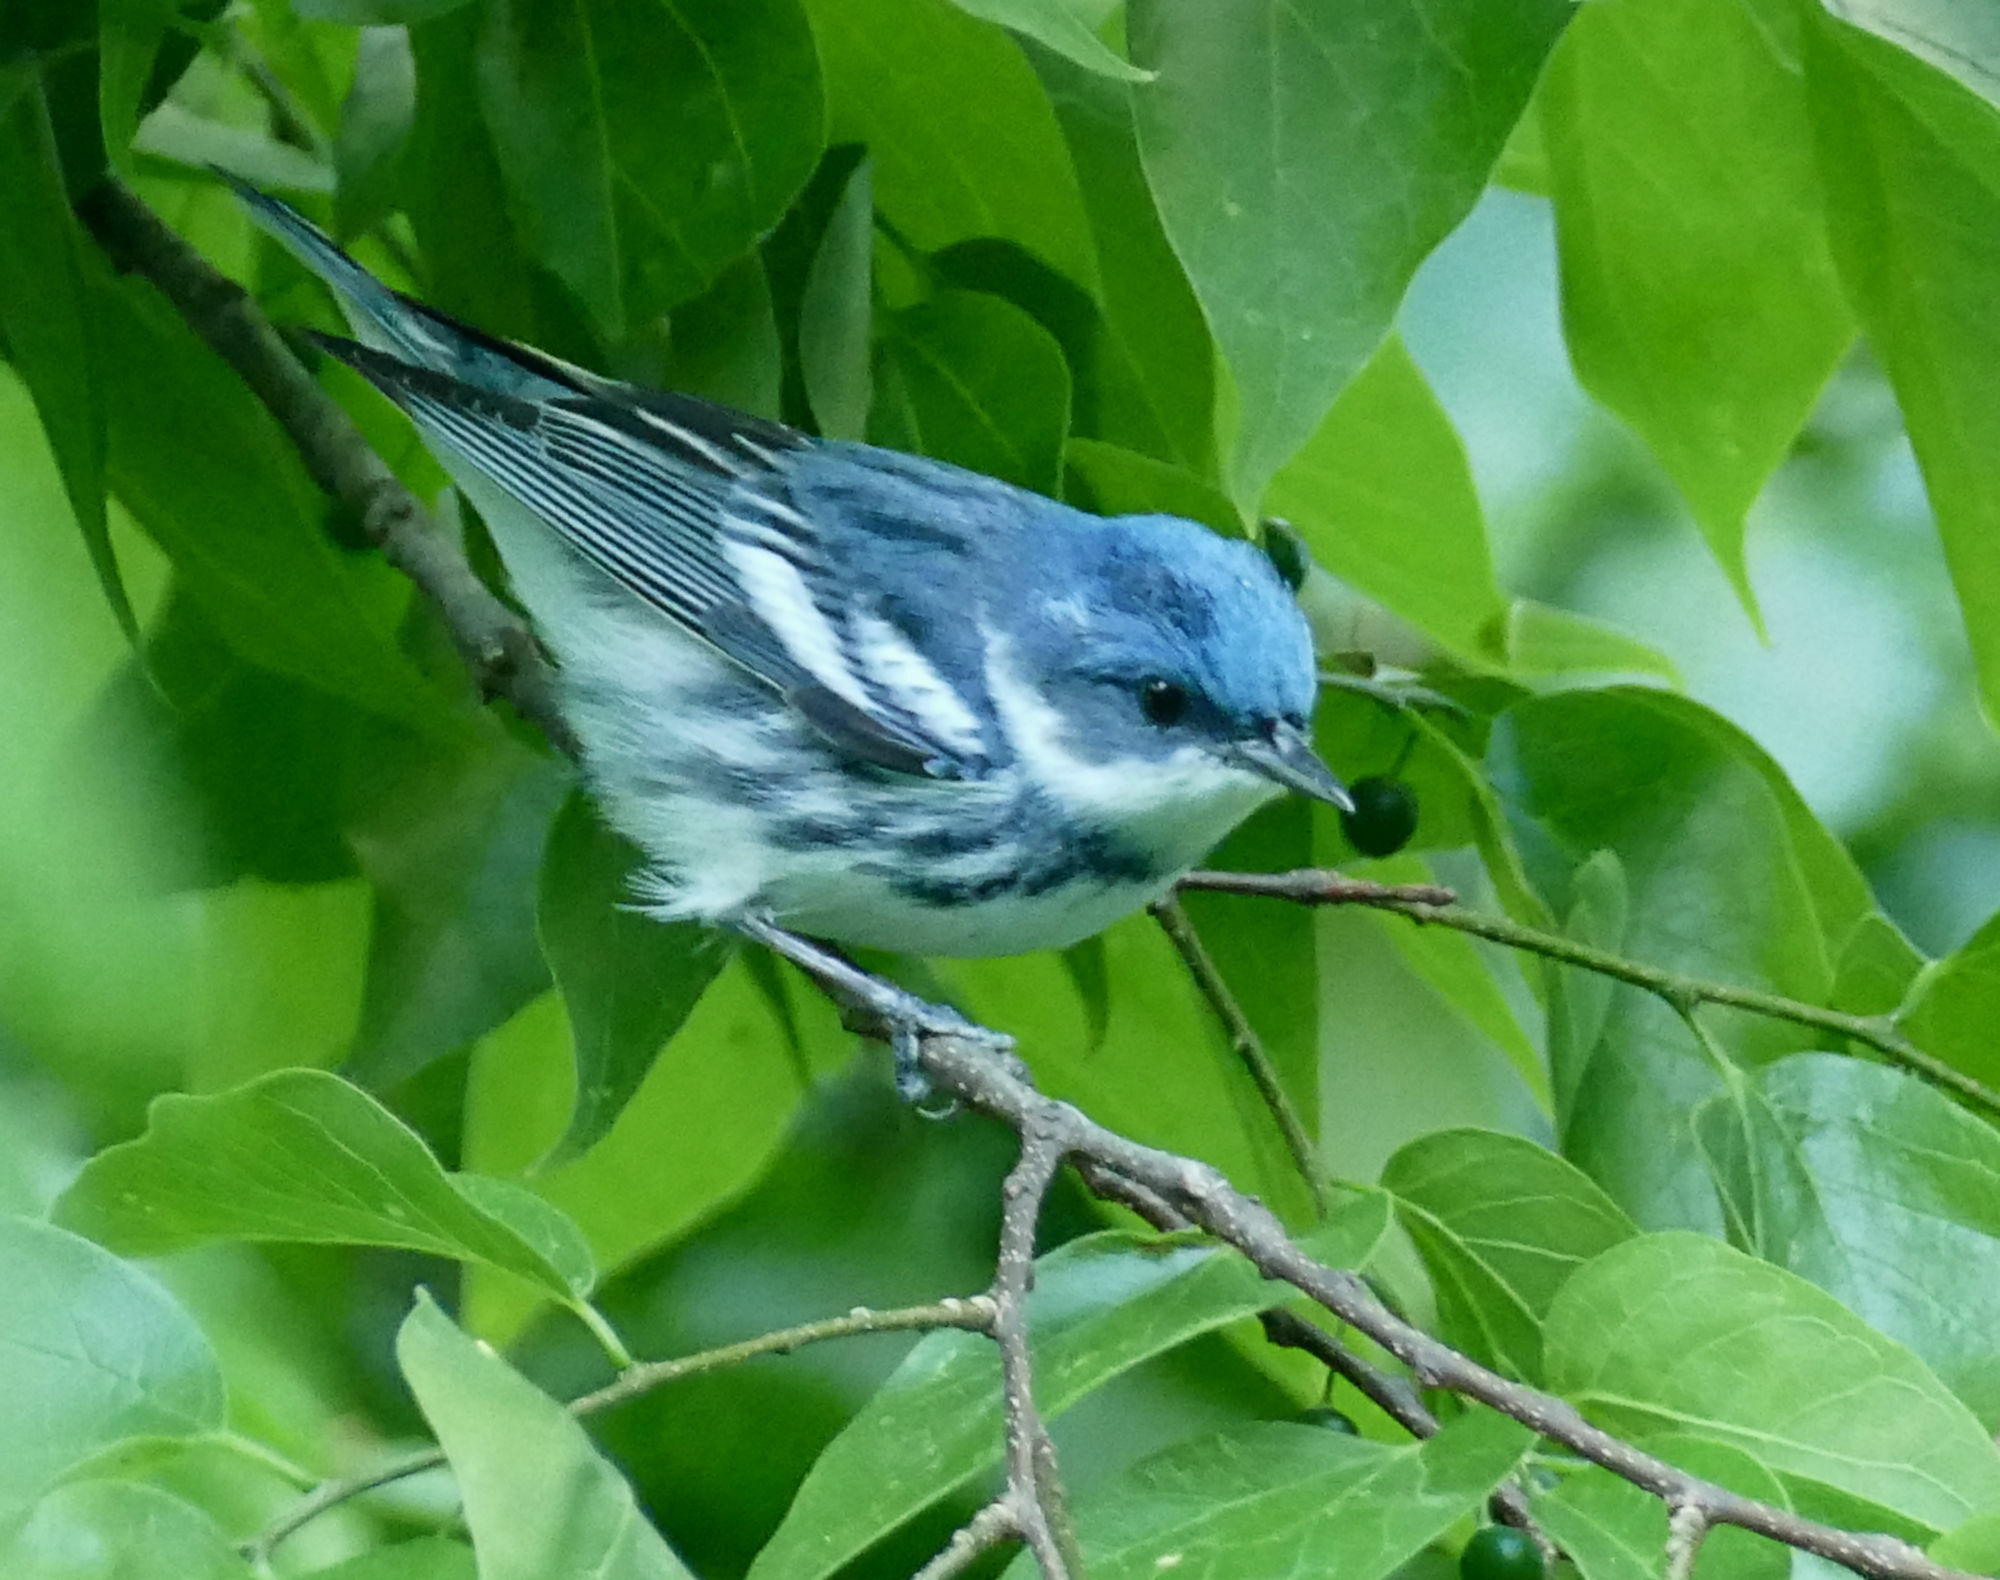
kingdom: Animalia
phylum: Chordata
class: Aves
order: Passeriformes
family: Parulidae
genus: Setophaga
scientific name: Setophaga cerulea
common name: Cerulean warbler
